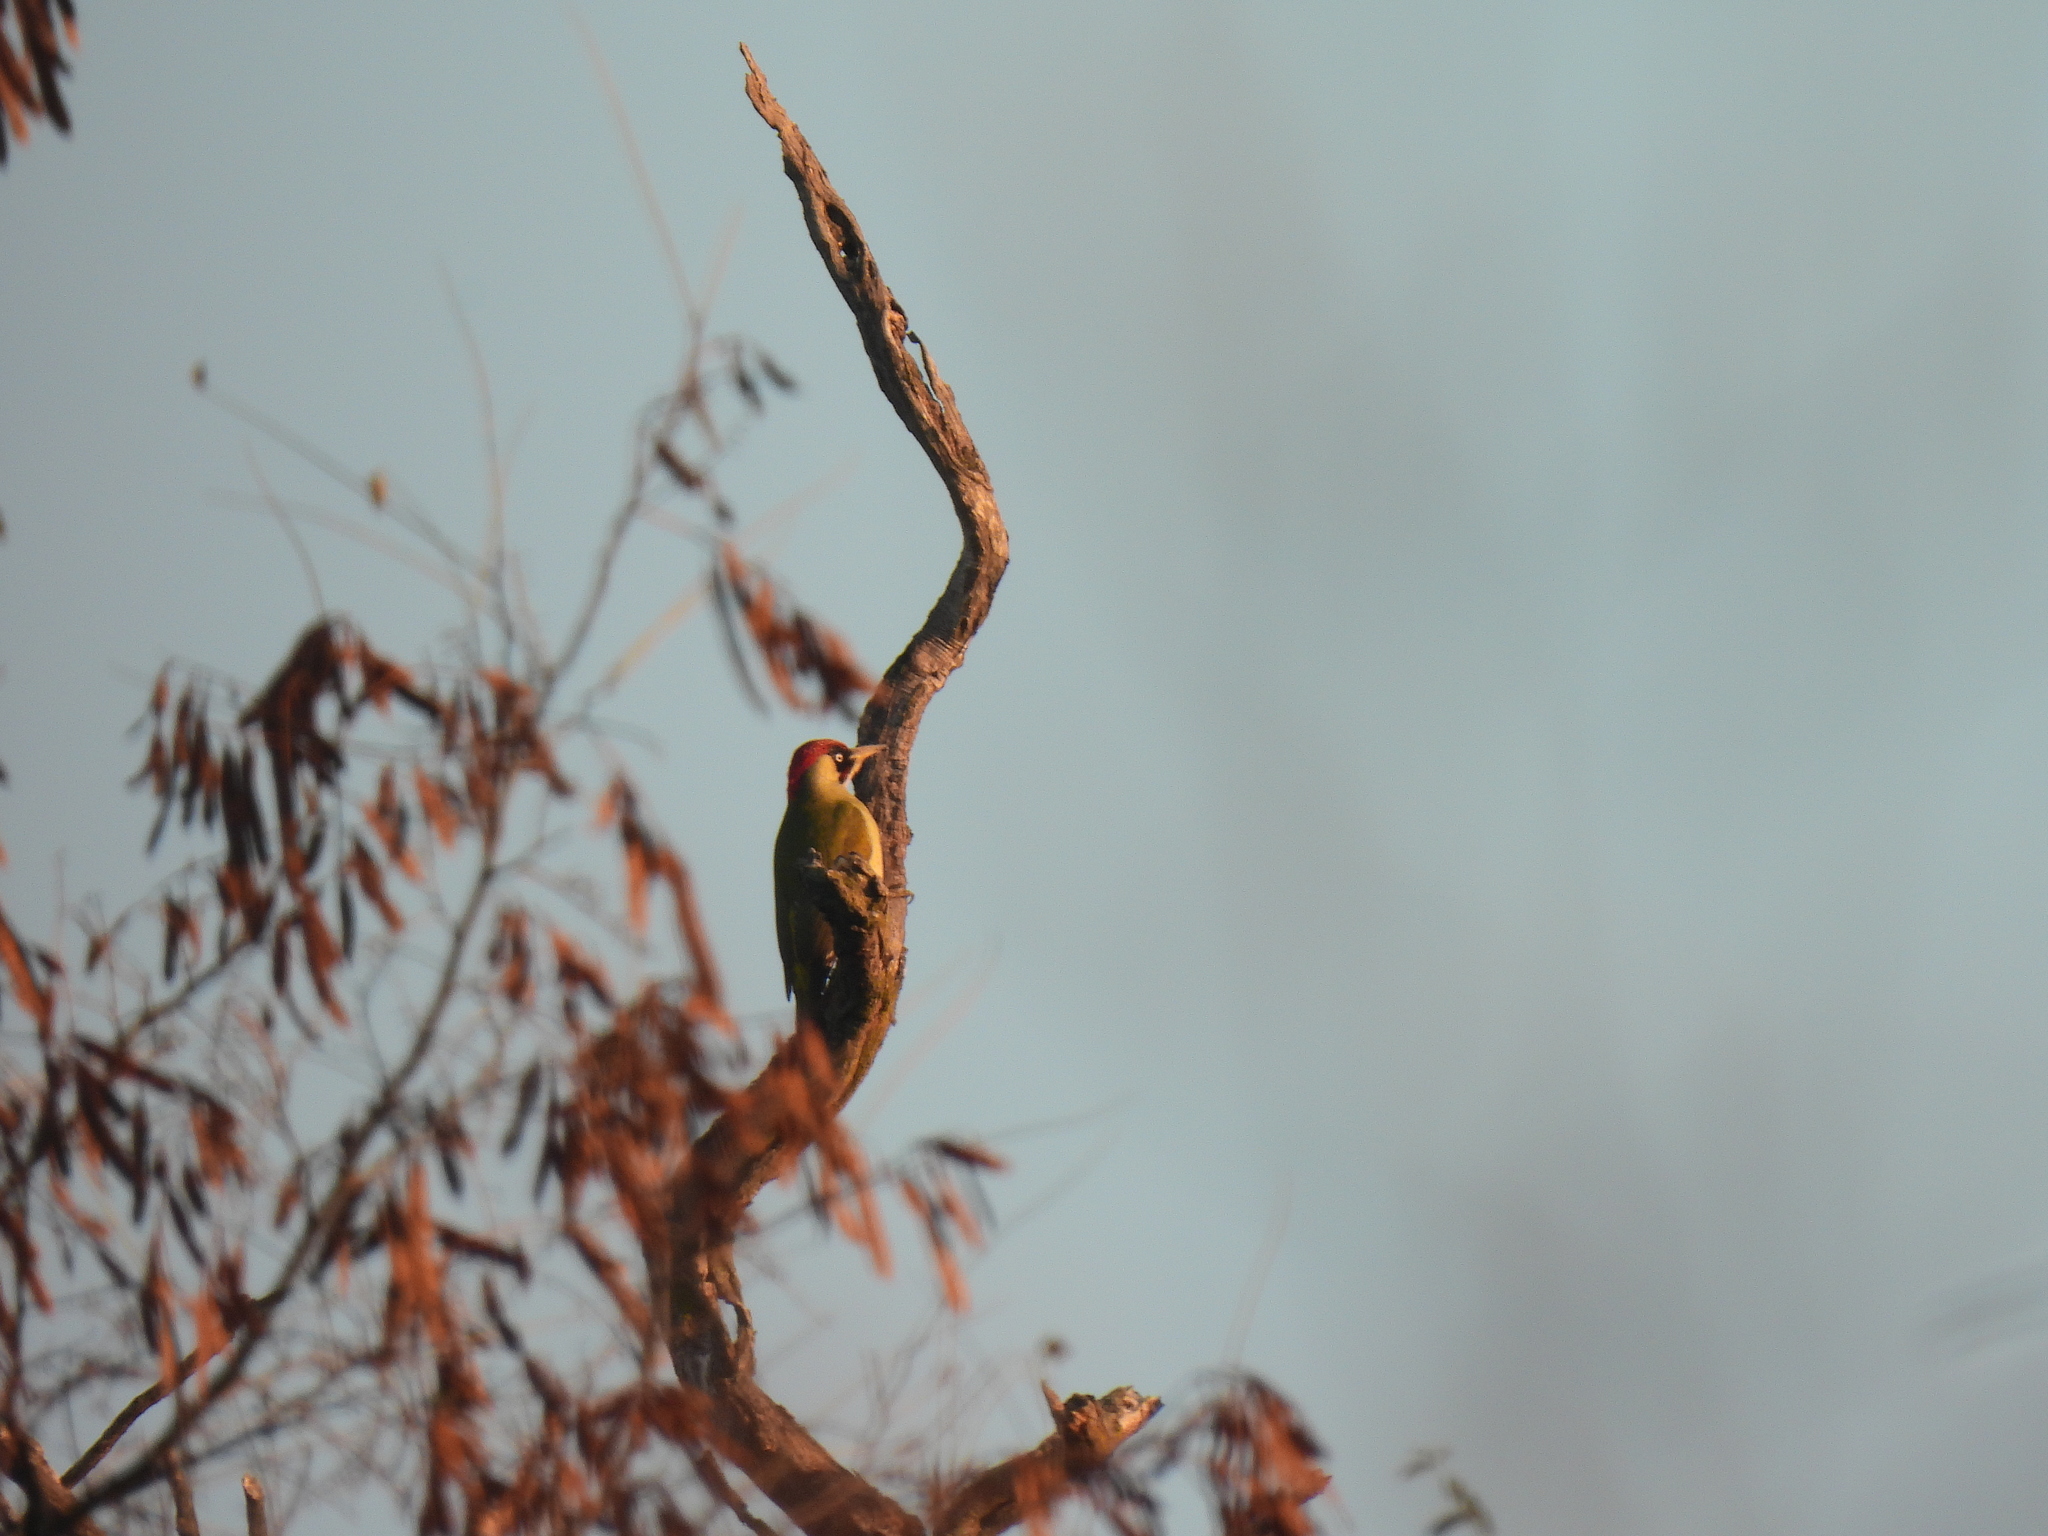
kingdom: Animalia
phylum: Chordata
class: Aves
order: Piciformes
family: Picidae
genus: Picus
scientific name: Picus viridis
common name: European green woodpecker
